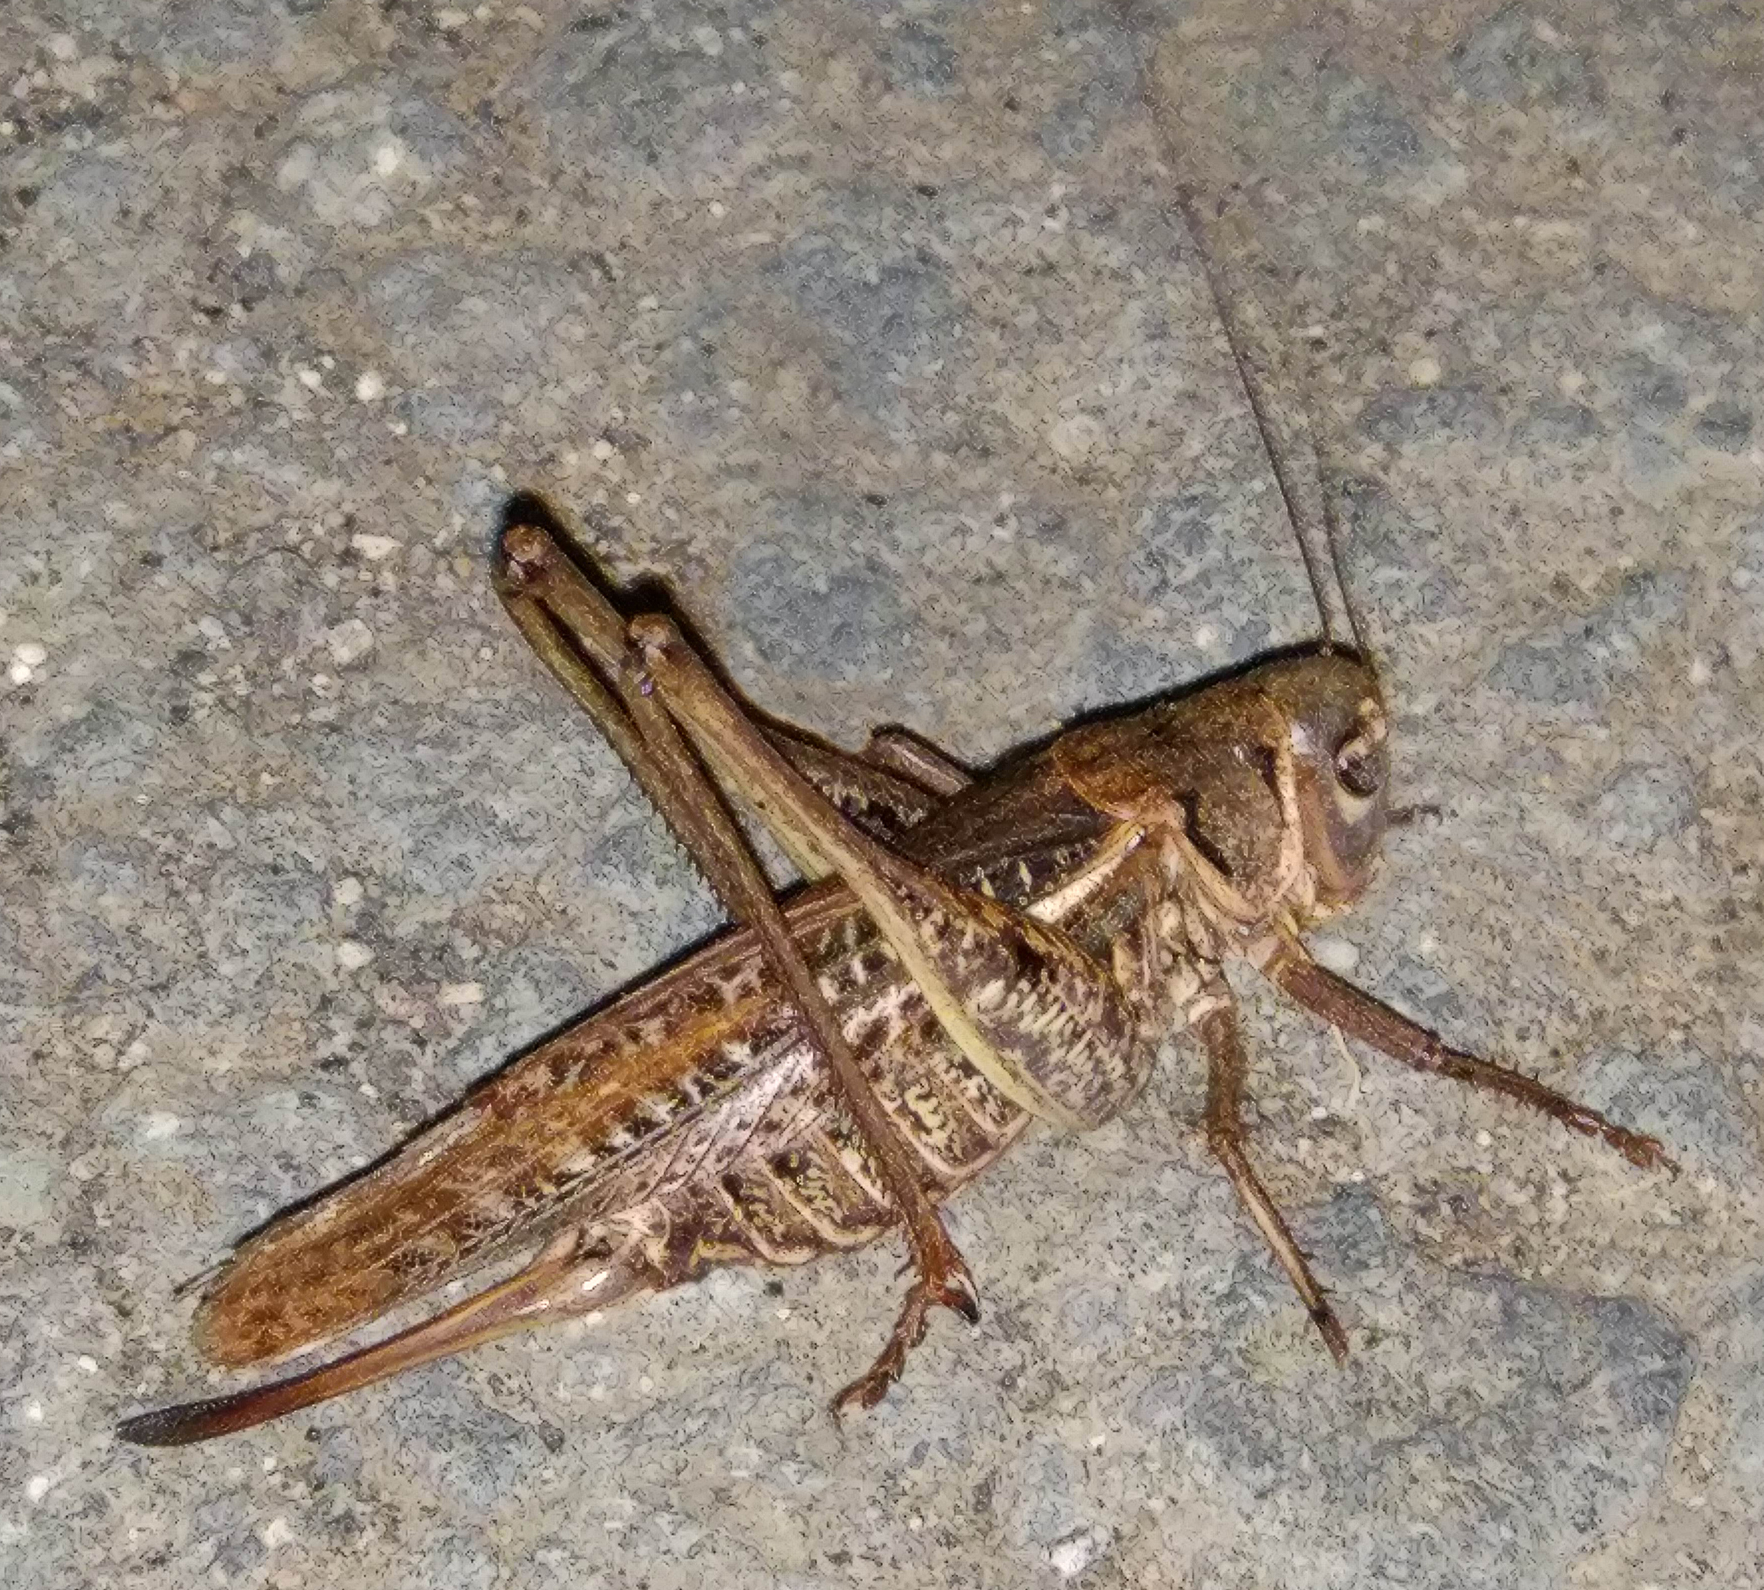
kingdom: Animalia
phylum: Arthropoda
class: Insecta
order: Orthoptera
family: Tettigoniidae
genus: Decticus
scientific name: Decticus albifrons
